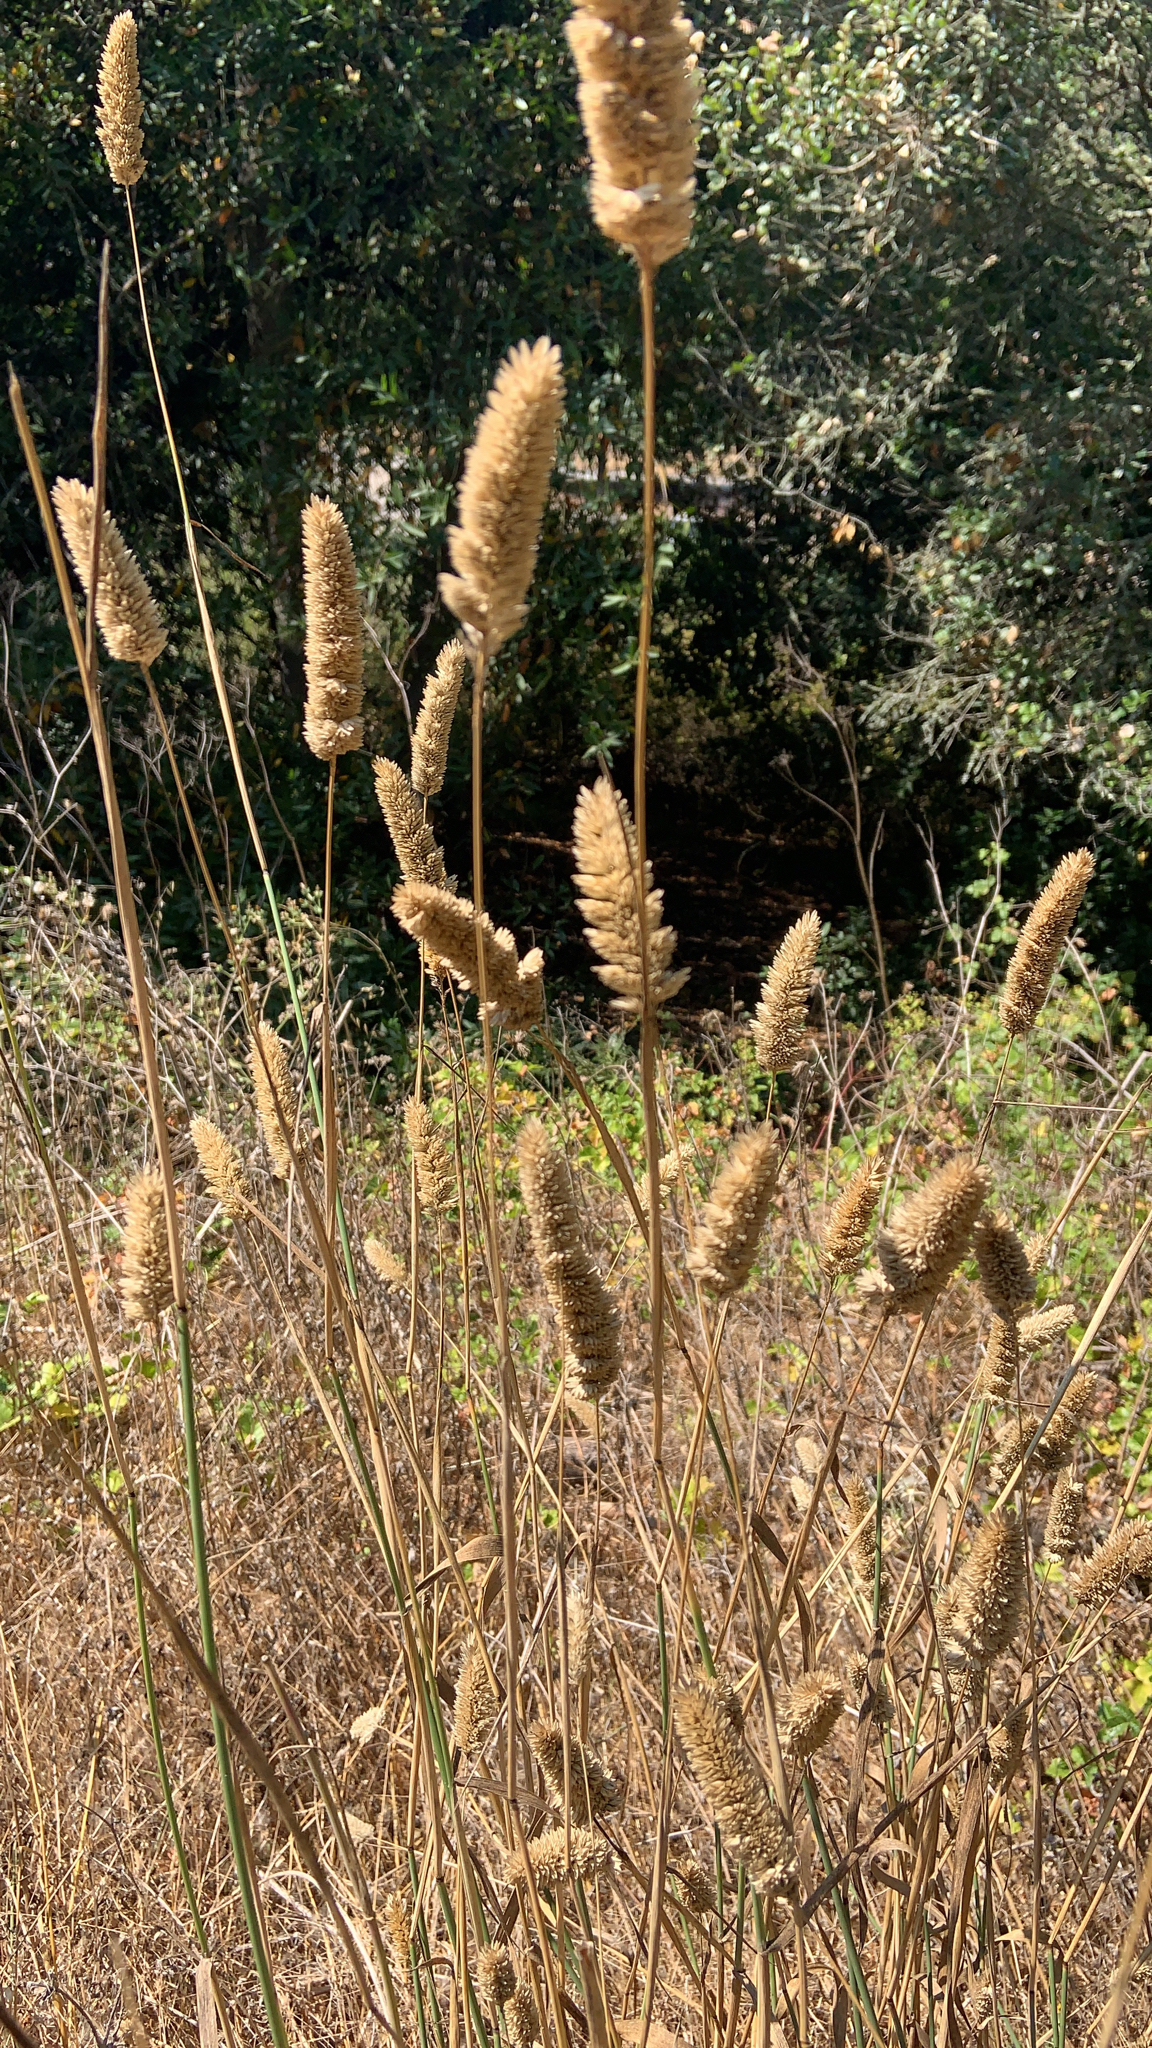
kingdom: Plantae
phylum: Tracheophyta
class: Liliopsida
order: Poales
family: Poaceae
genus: Phalaris
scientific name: Phalaris aquatica
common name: Bulbous canary-grass
